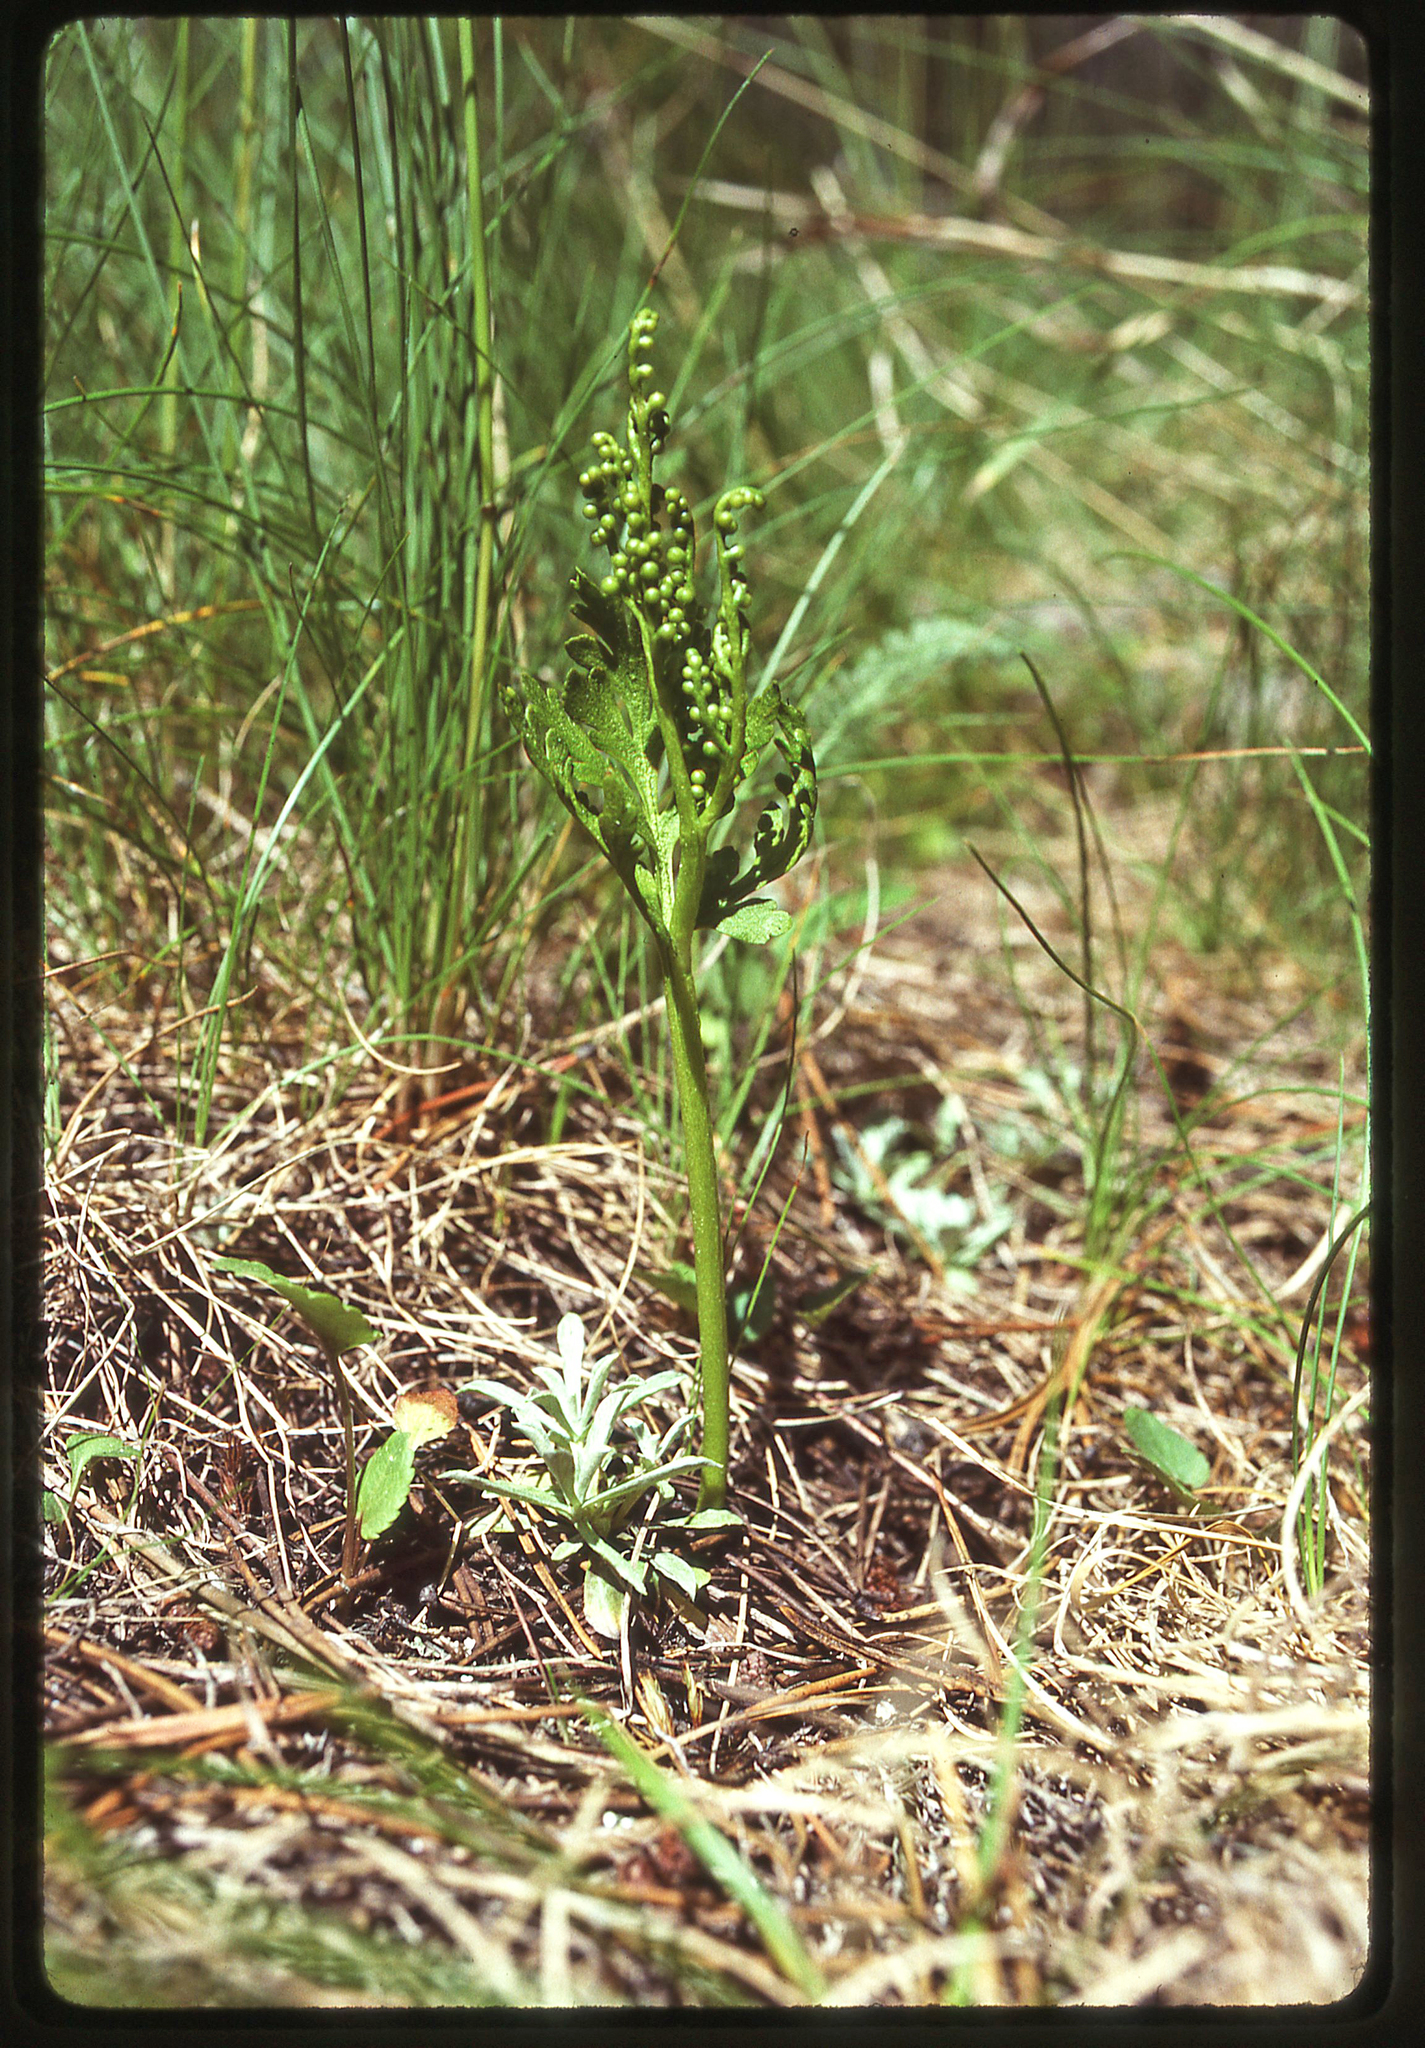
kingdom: Plantae
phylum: Tracheophyta
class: Polypodiopsida
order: Ophioglossales
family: Ophioglossaceae
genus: Botrychium
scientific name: Botrychium lanceolatum
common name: Lance-leaved moonwort
